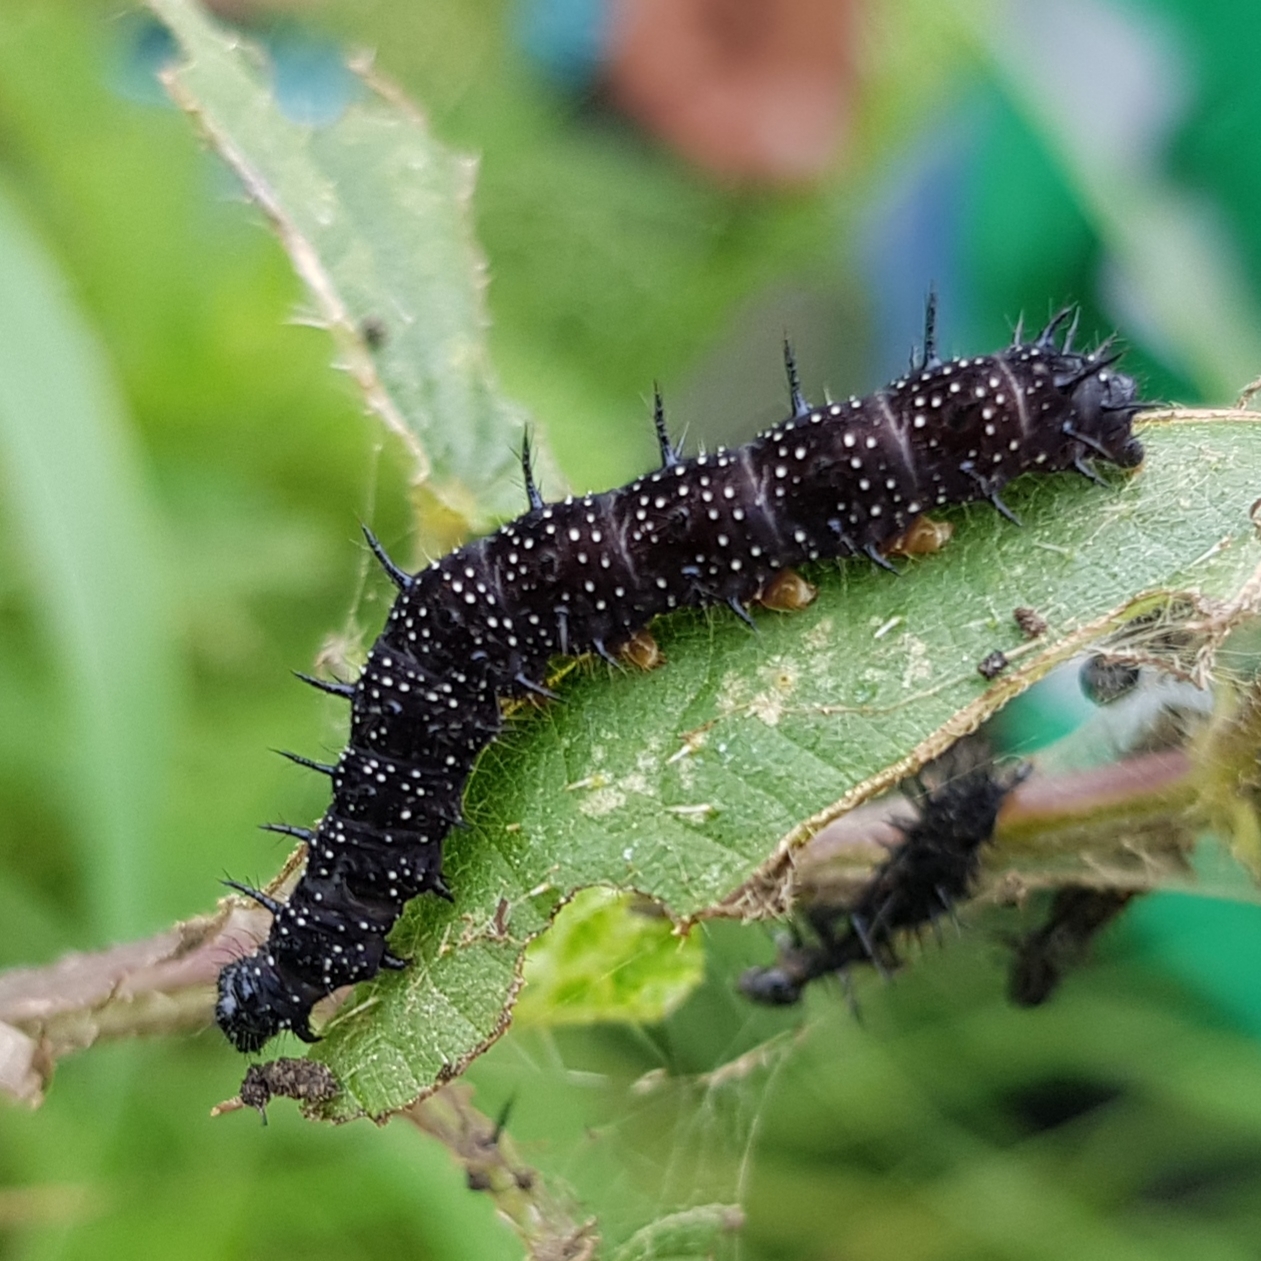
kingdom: Animalia
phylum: Arthropoda
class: Insecta
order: Lepidoptera
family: Nymphalidae
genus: Aglais
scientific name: Aglais io
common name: Peacock
